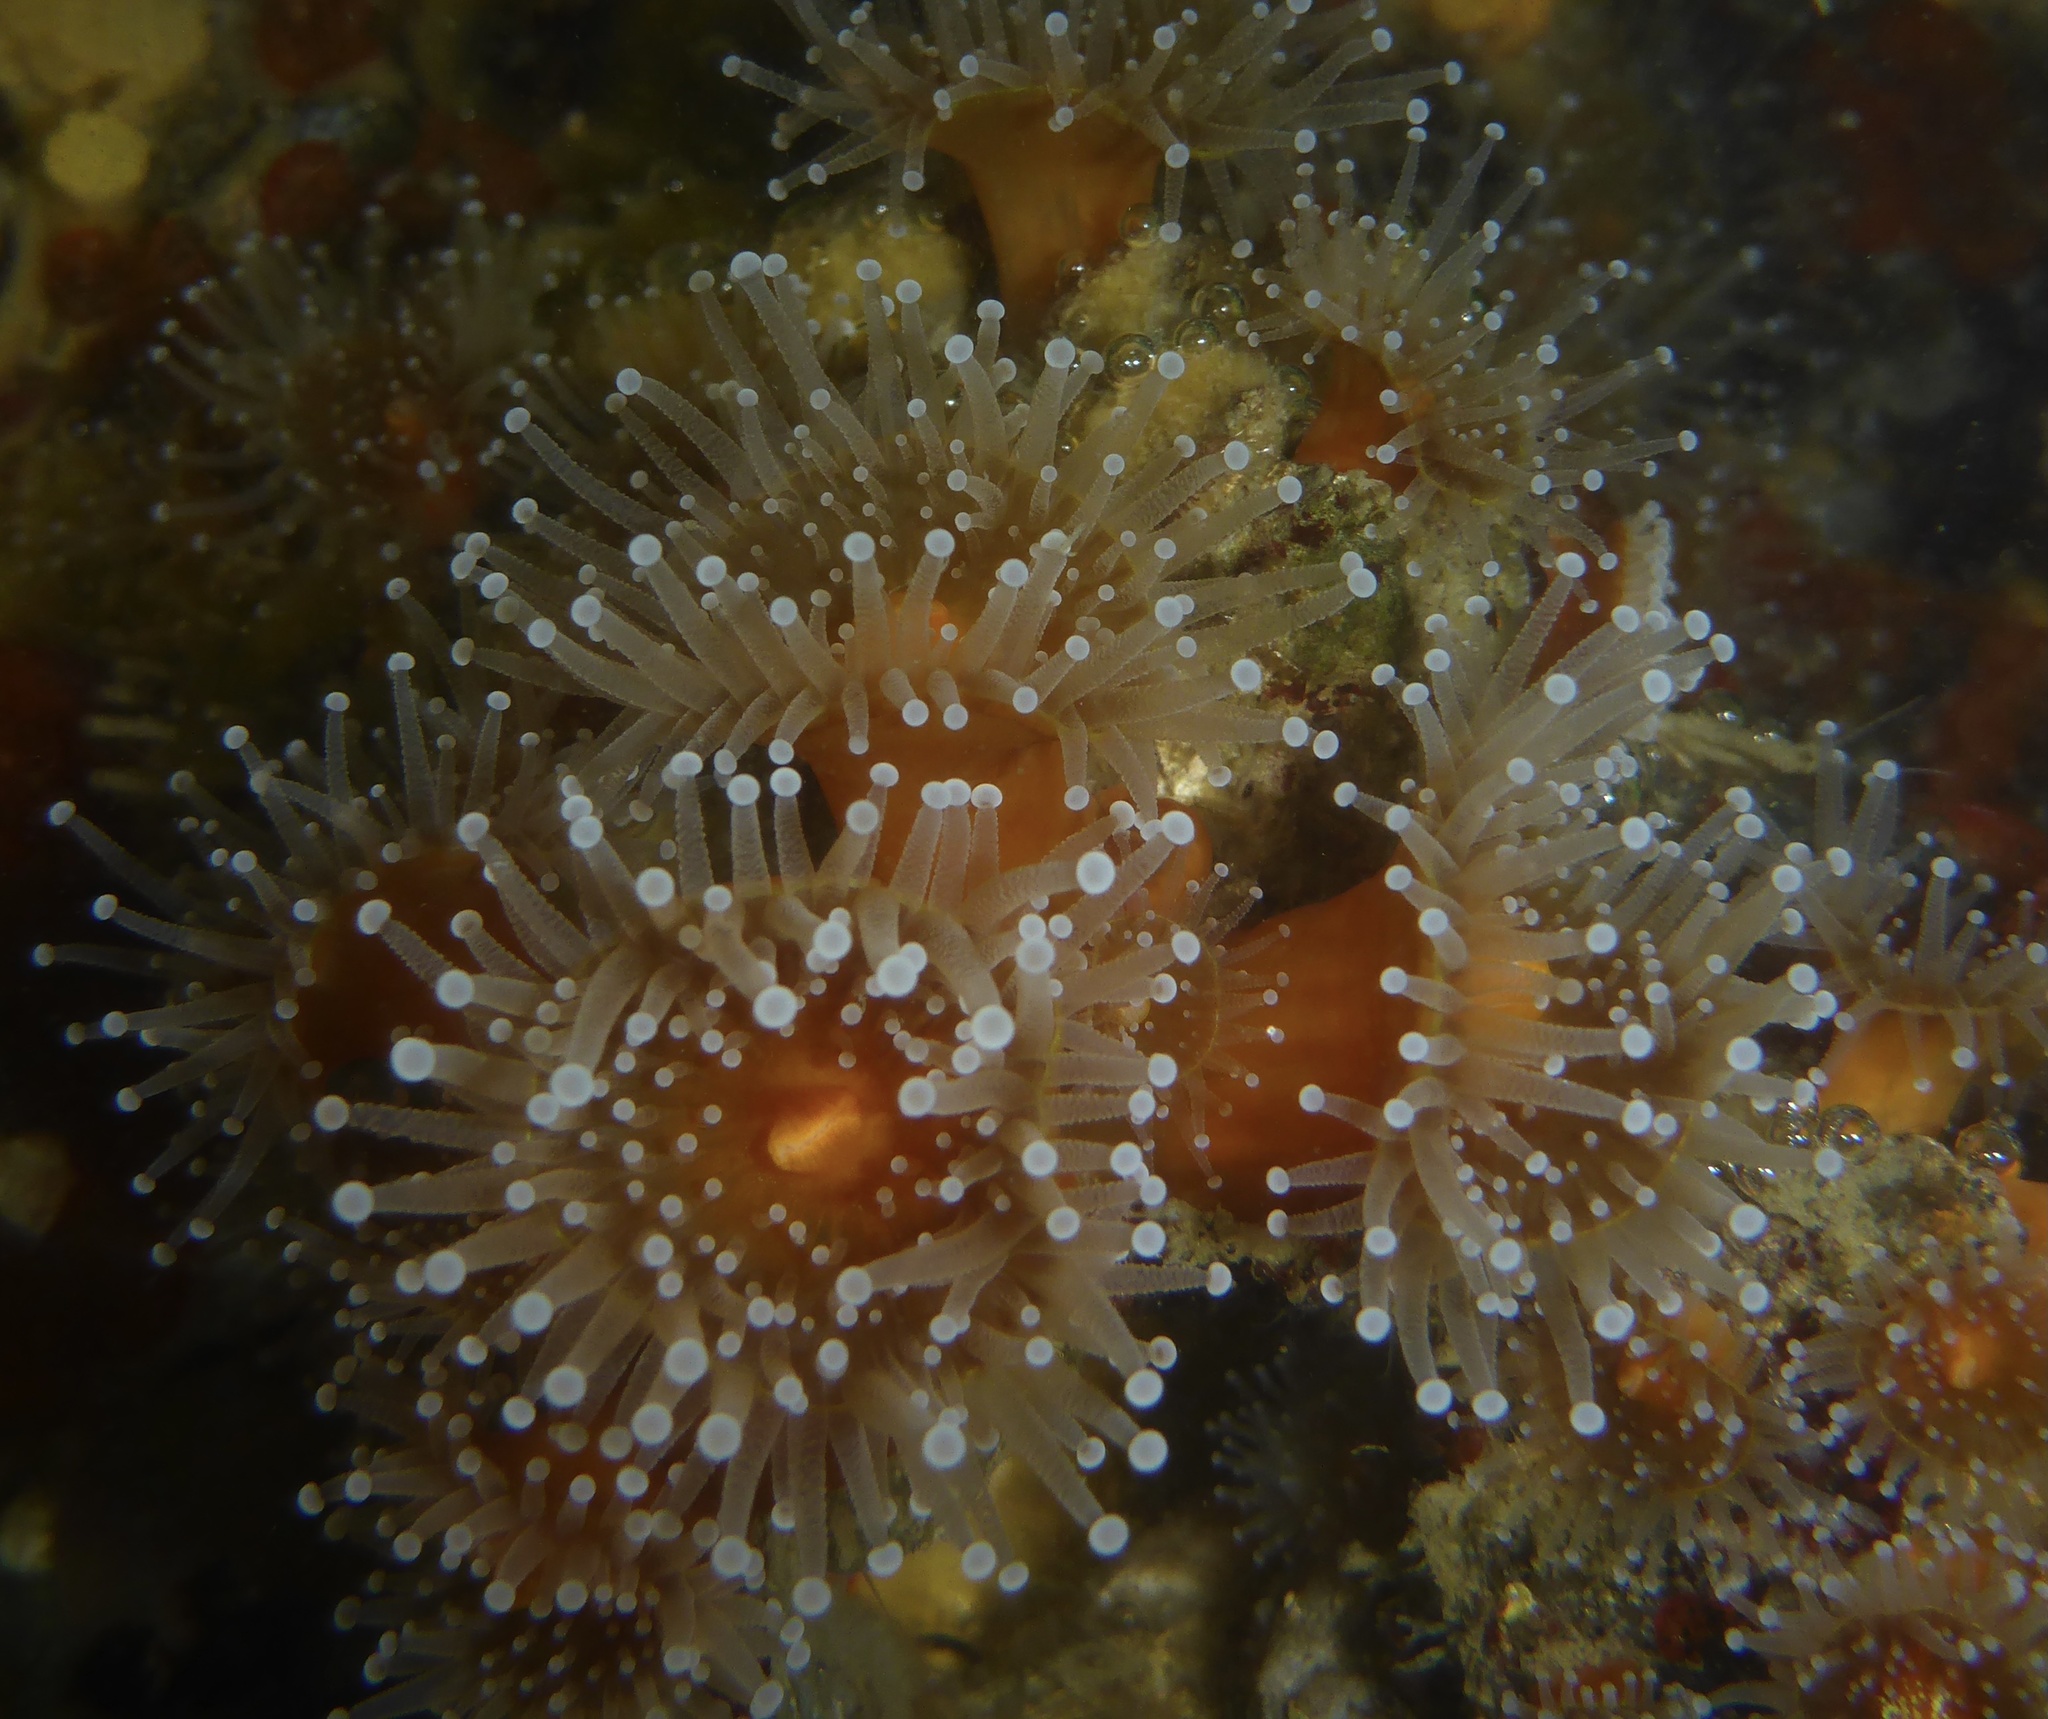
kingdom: Animalia
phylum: Cnidaria
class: Anthozoa
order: Corallimorpharia
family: Corallimorphidae
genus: Corynactis
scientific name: Corynactis californica
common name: Strawberry corallimorpharian
